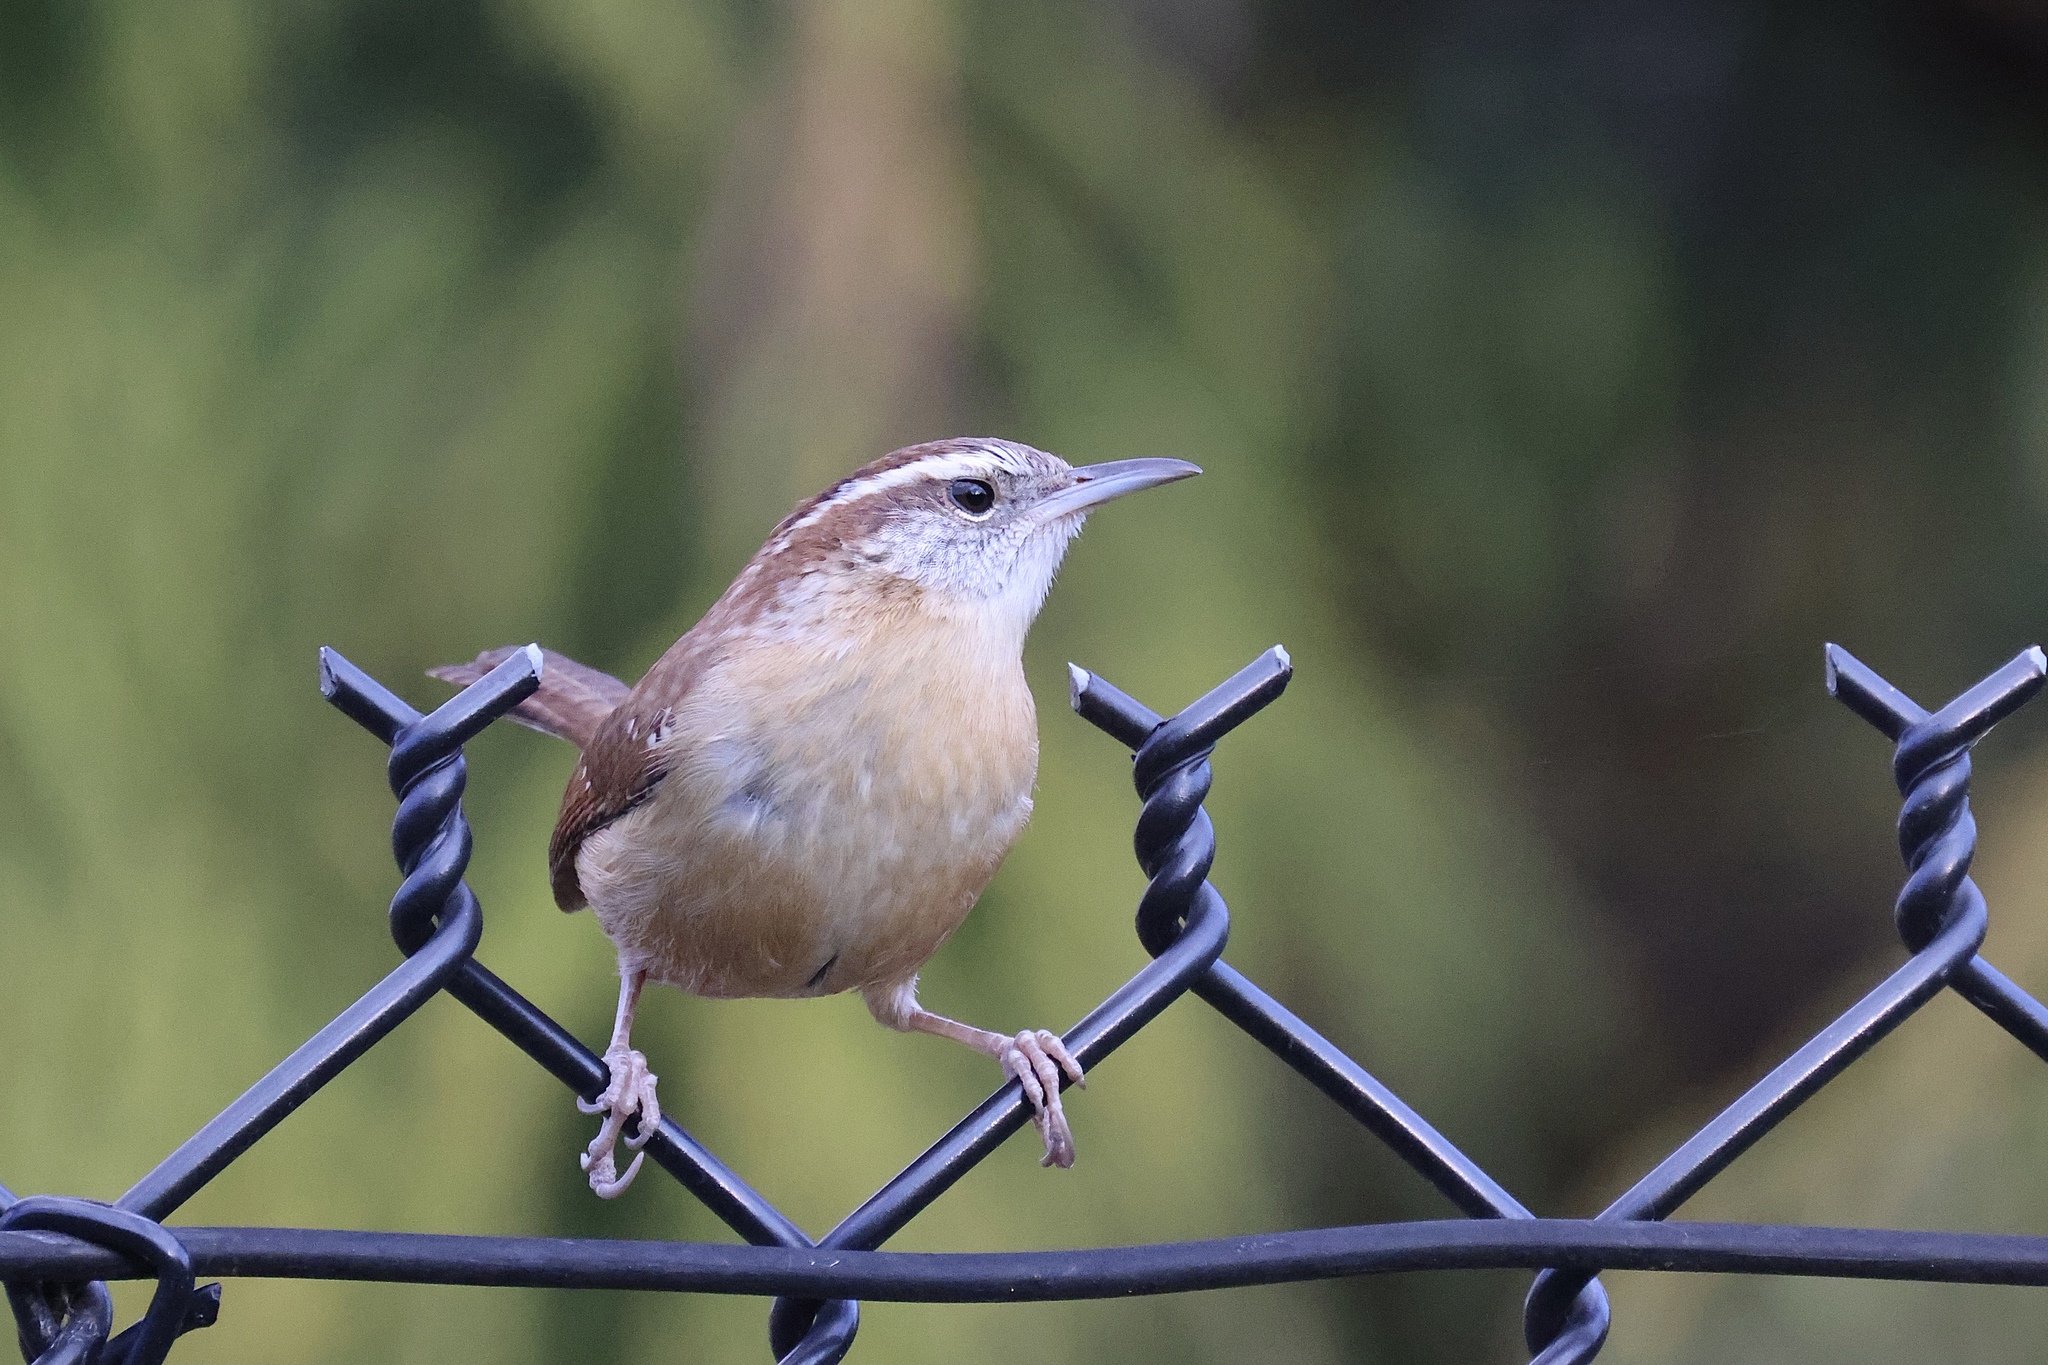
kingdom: Animalia
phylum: Chordata
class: Aves
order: Passeriformes
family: Troglodytidae
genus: Thryothorus
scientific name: Thryothorus ludovicianus
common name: Carolina wren
